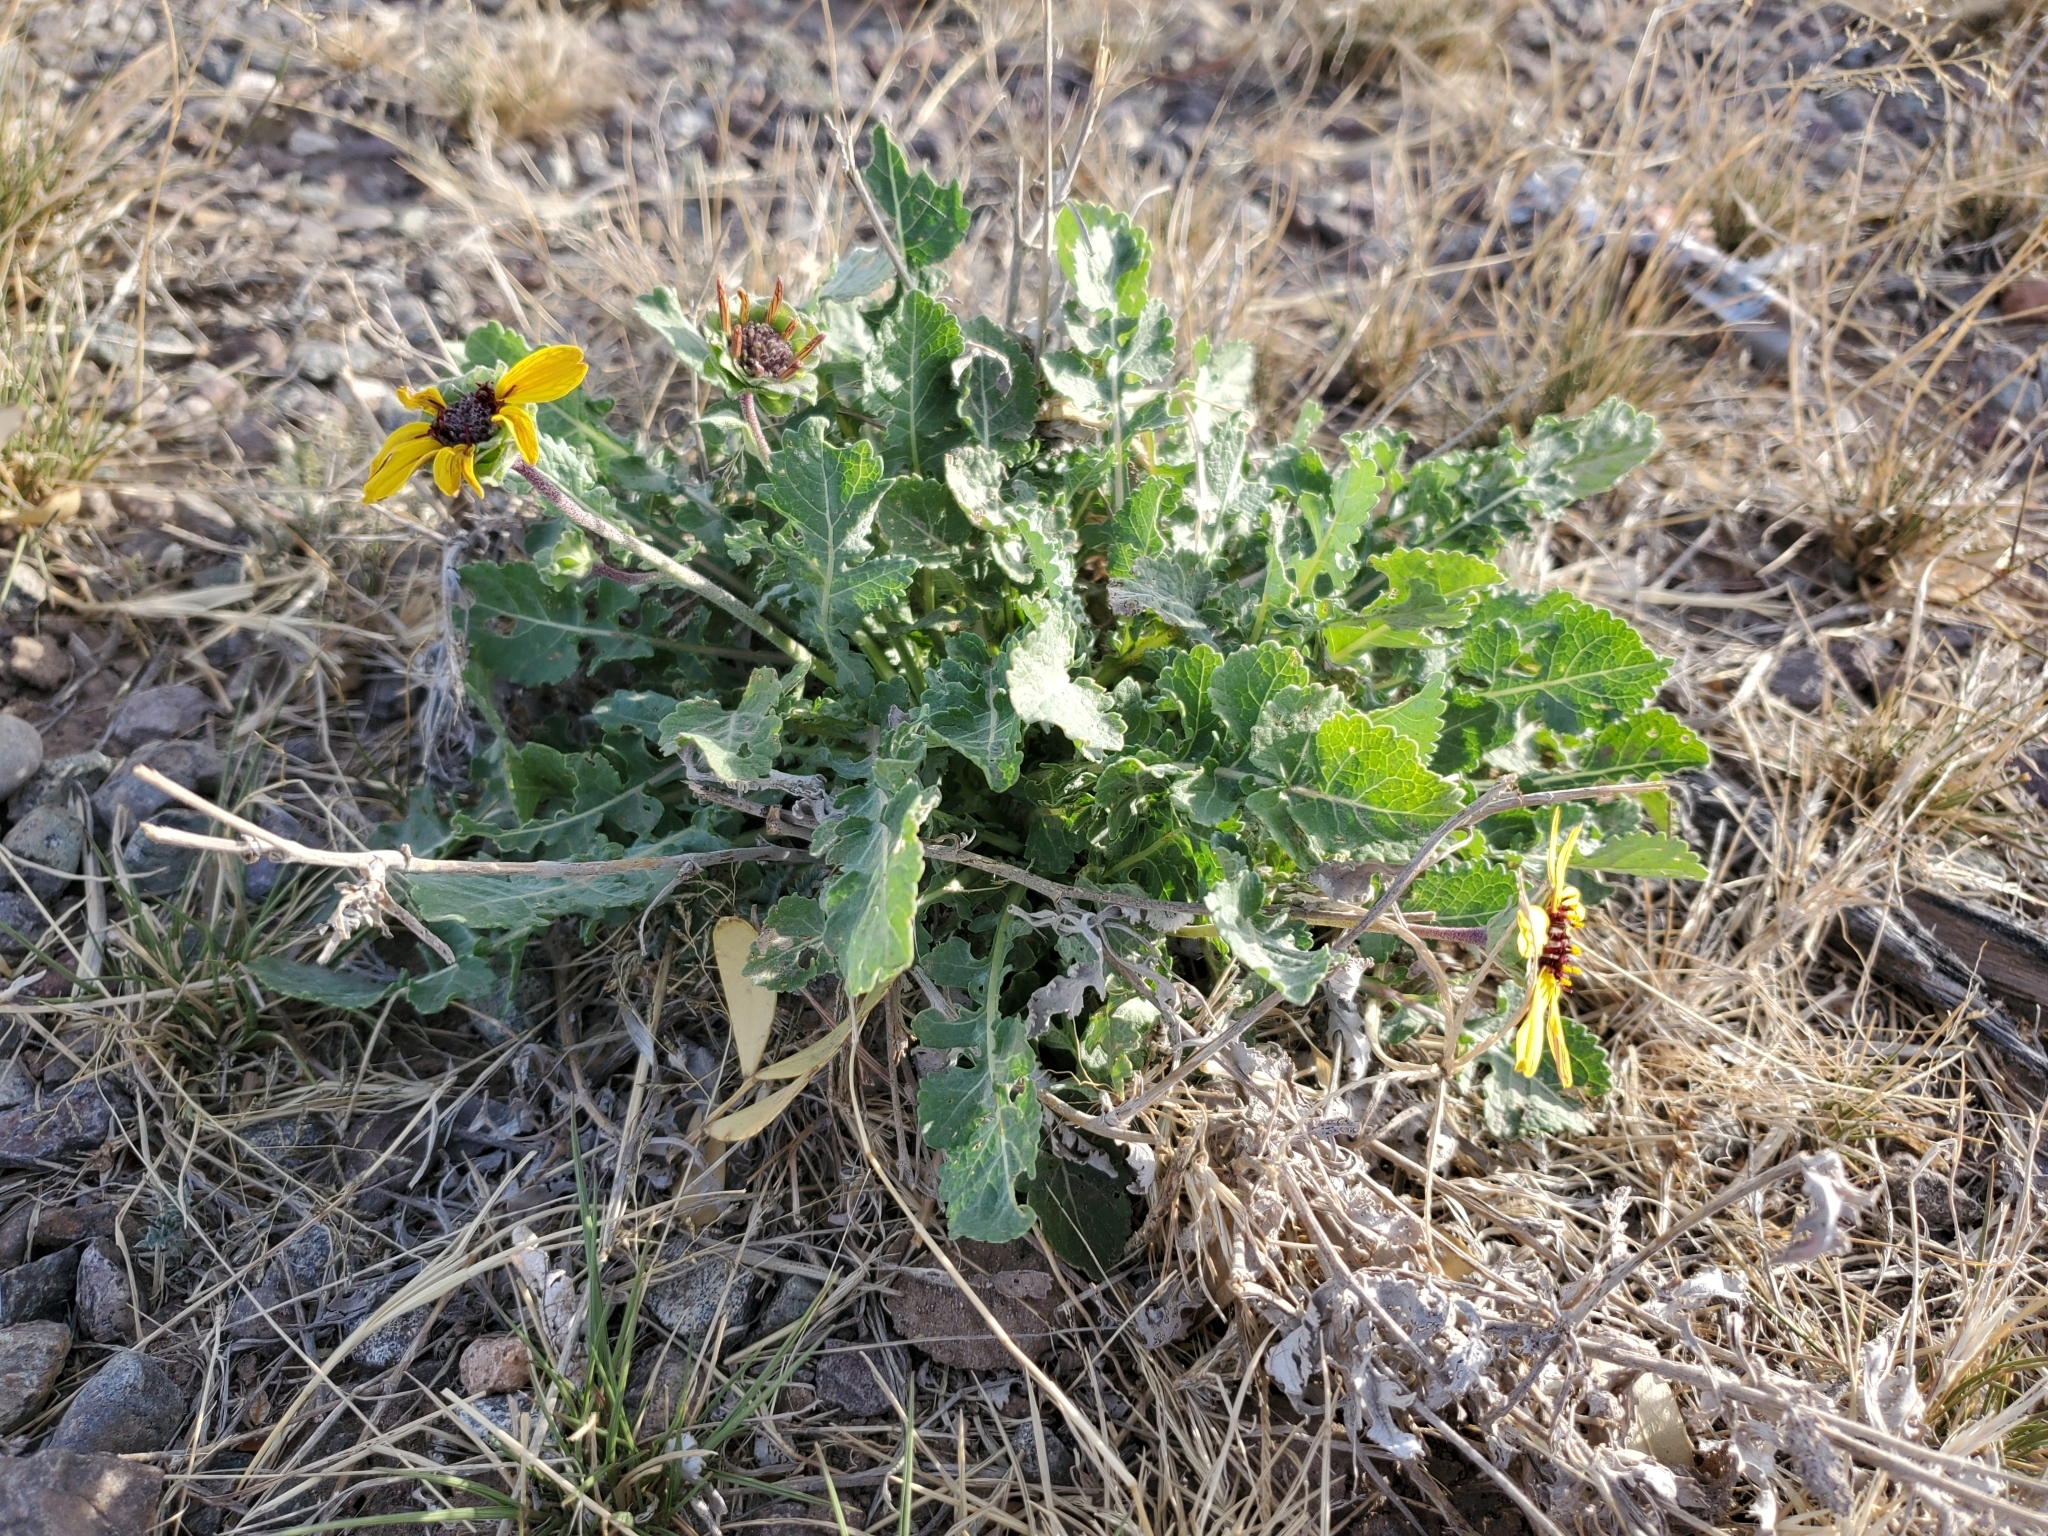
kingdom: Plantae
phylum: Tracheophyta
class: Magnoliopsida
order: Asterales
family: Asteraceae
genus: Berlandiera
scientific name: Berlandiera lyrata
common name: Chocolate-flower
